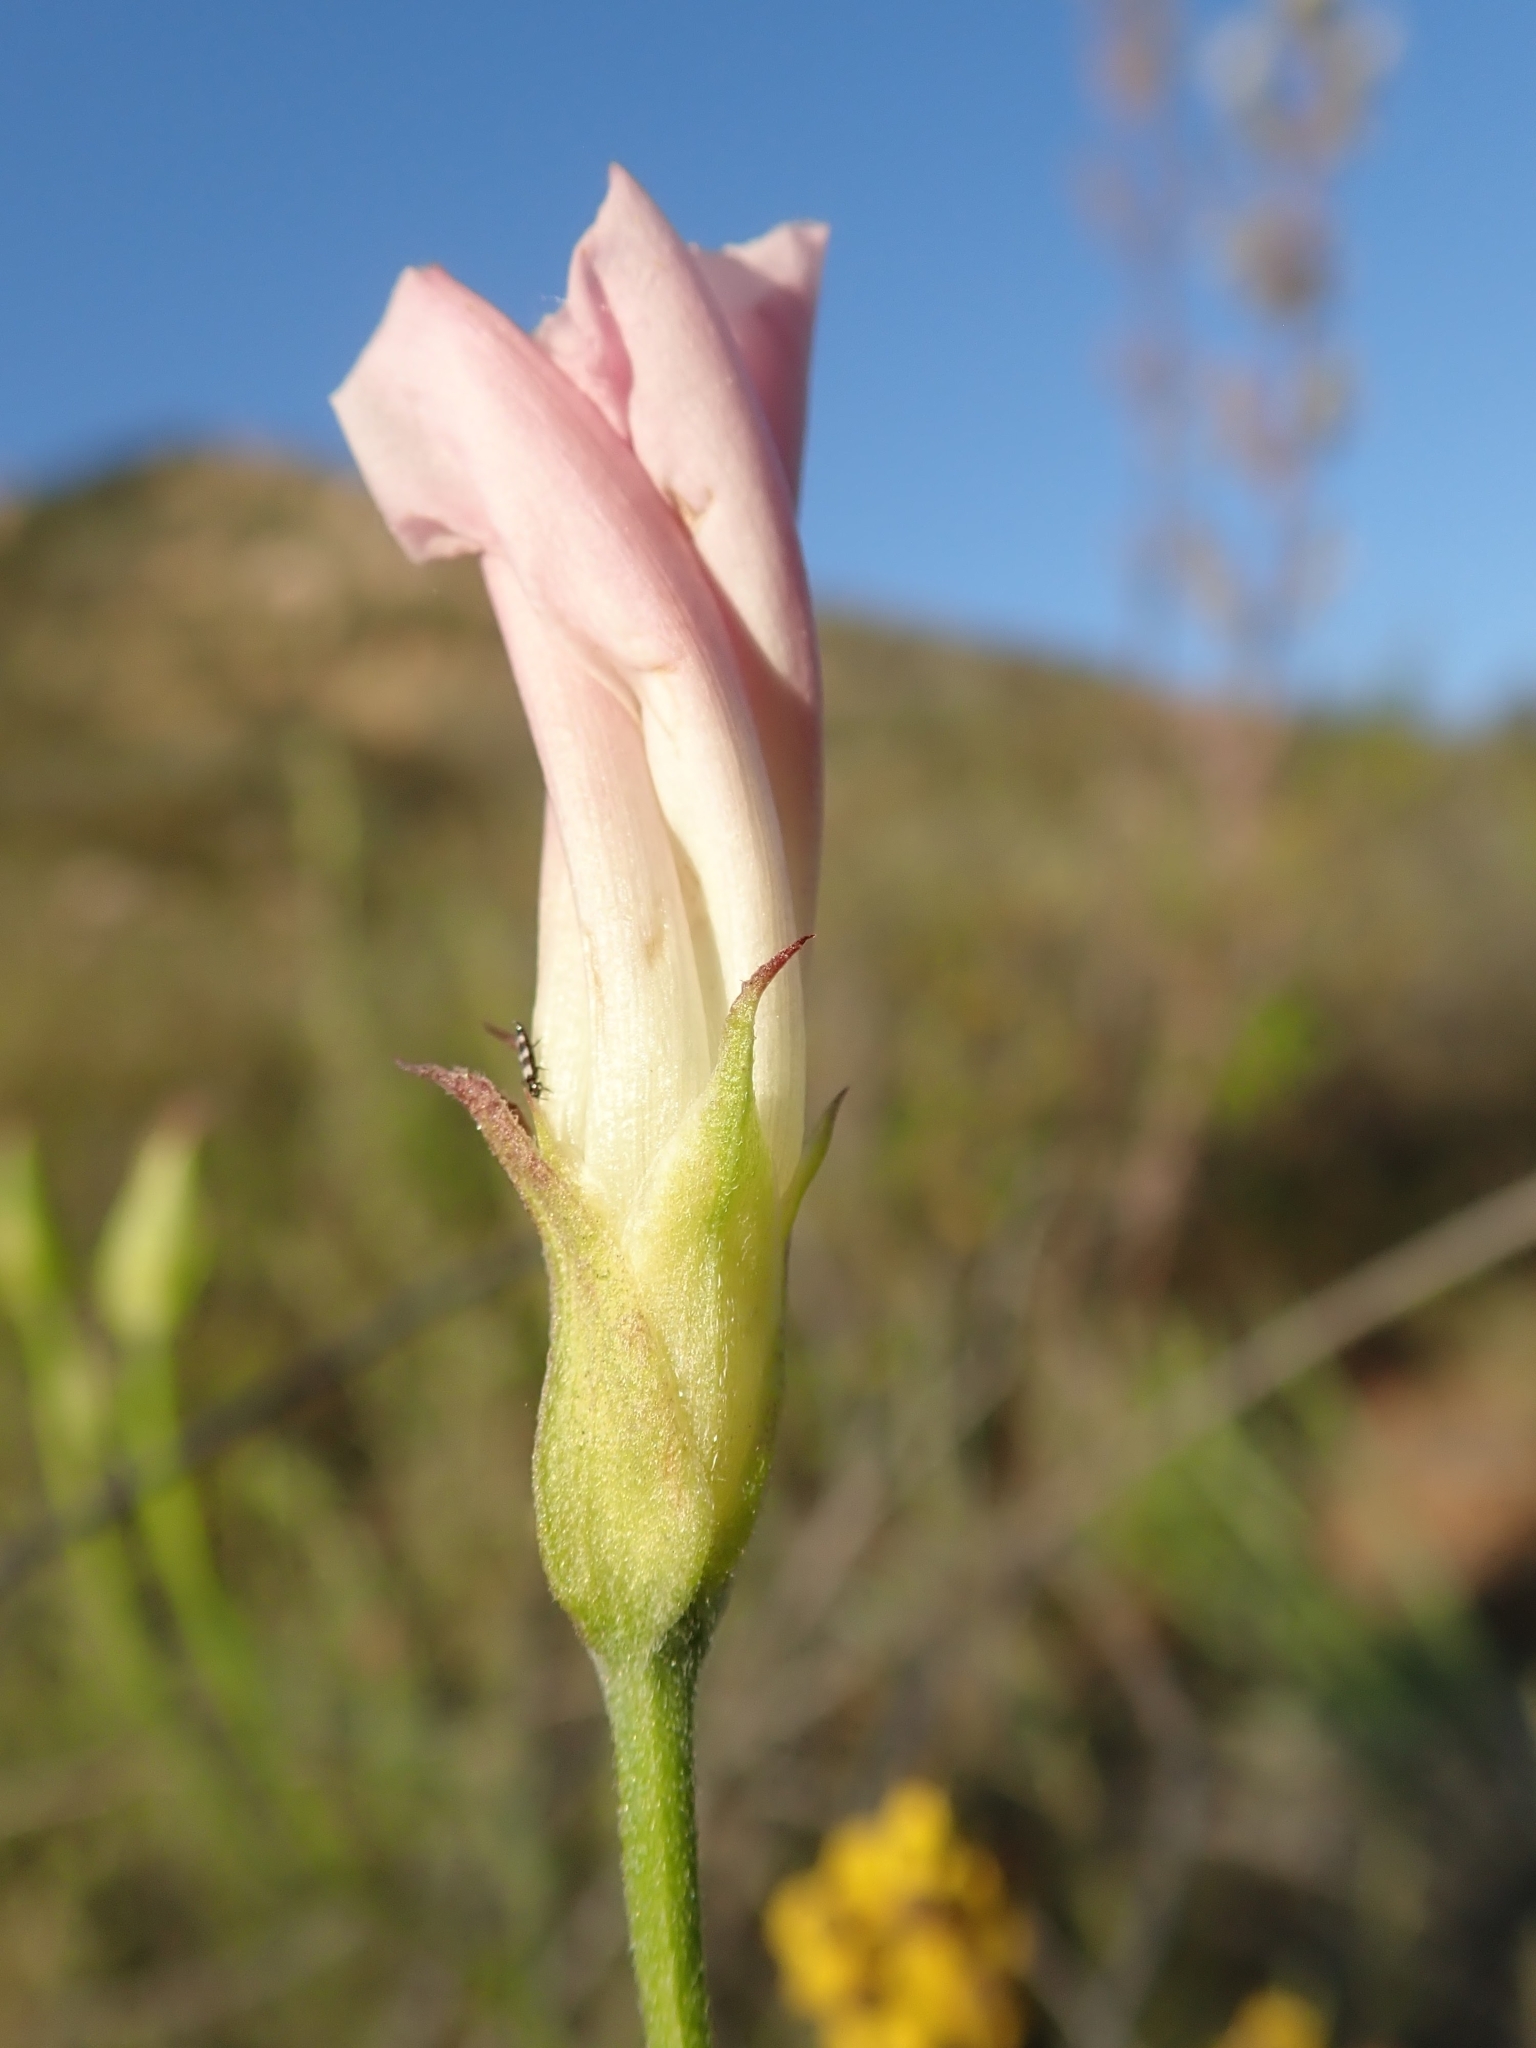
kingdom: Plantae
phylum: Tracheophyta
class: Magnoliopsida
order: Solanales
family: Convolvulaceae
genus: Calystegia
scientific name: Calystegia macrostegia
